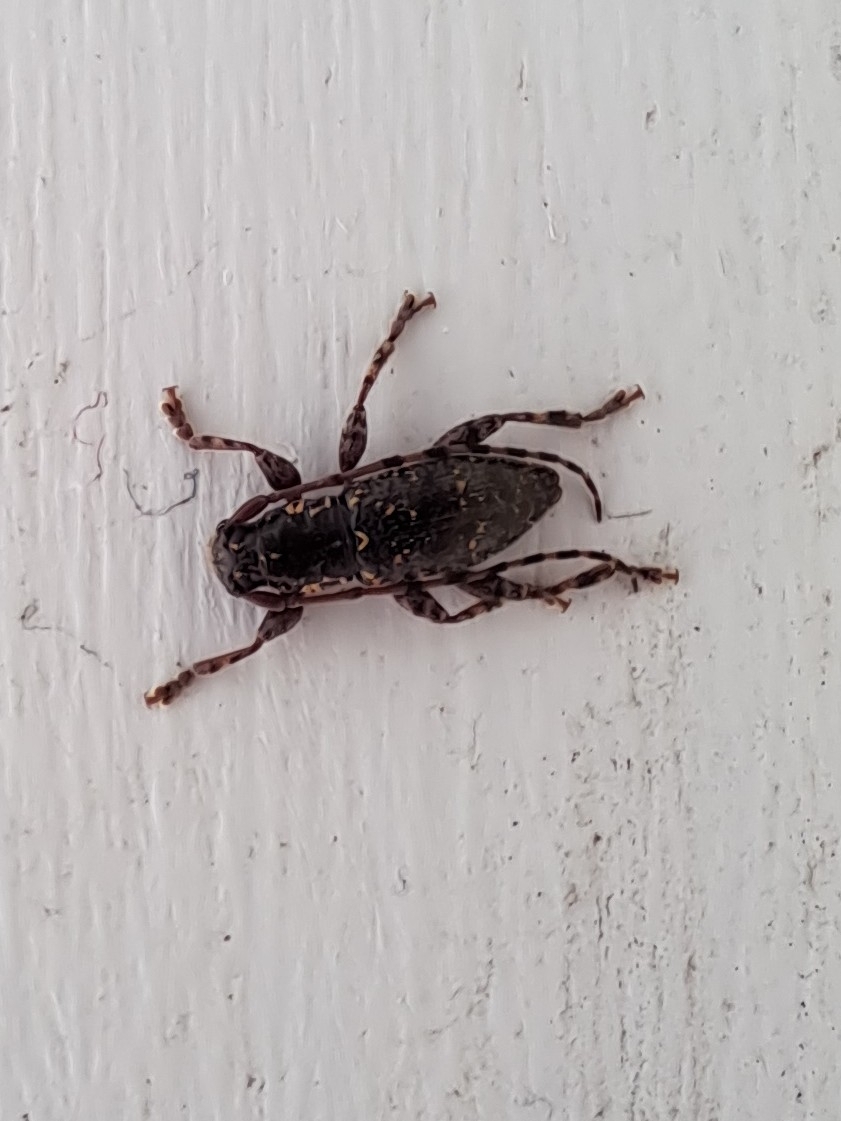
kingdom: Animalia
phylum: Arthropoda
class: Insecta
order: Coleoptera
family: Cerambycidae
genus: Xylotoles
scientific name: Xylotoles laetus
